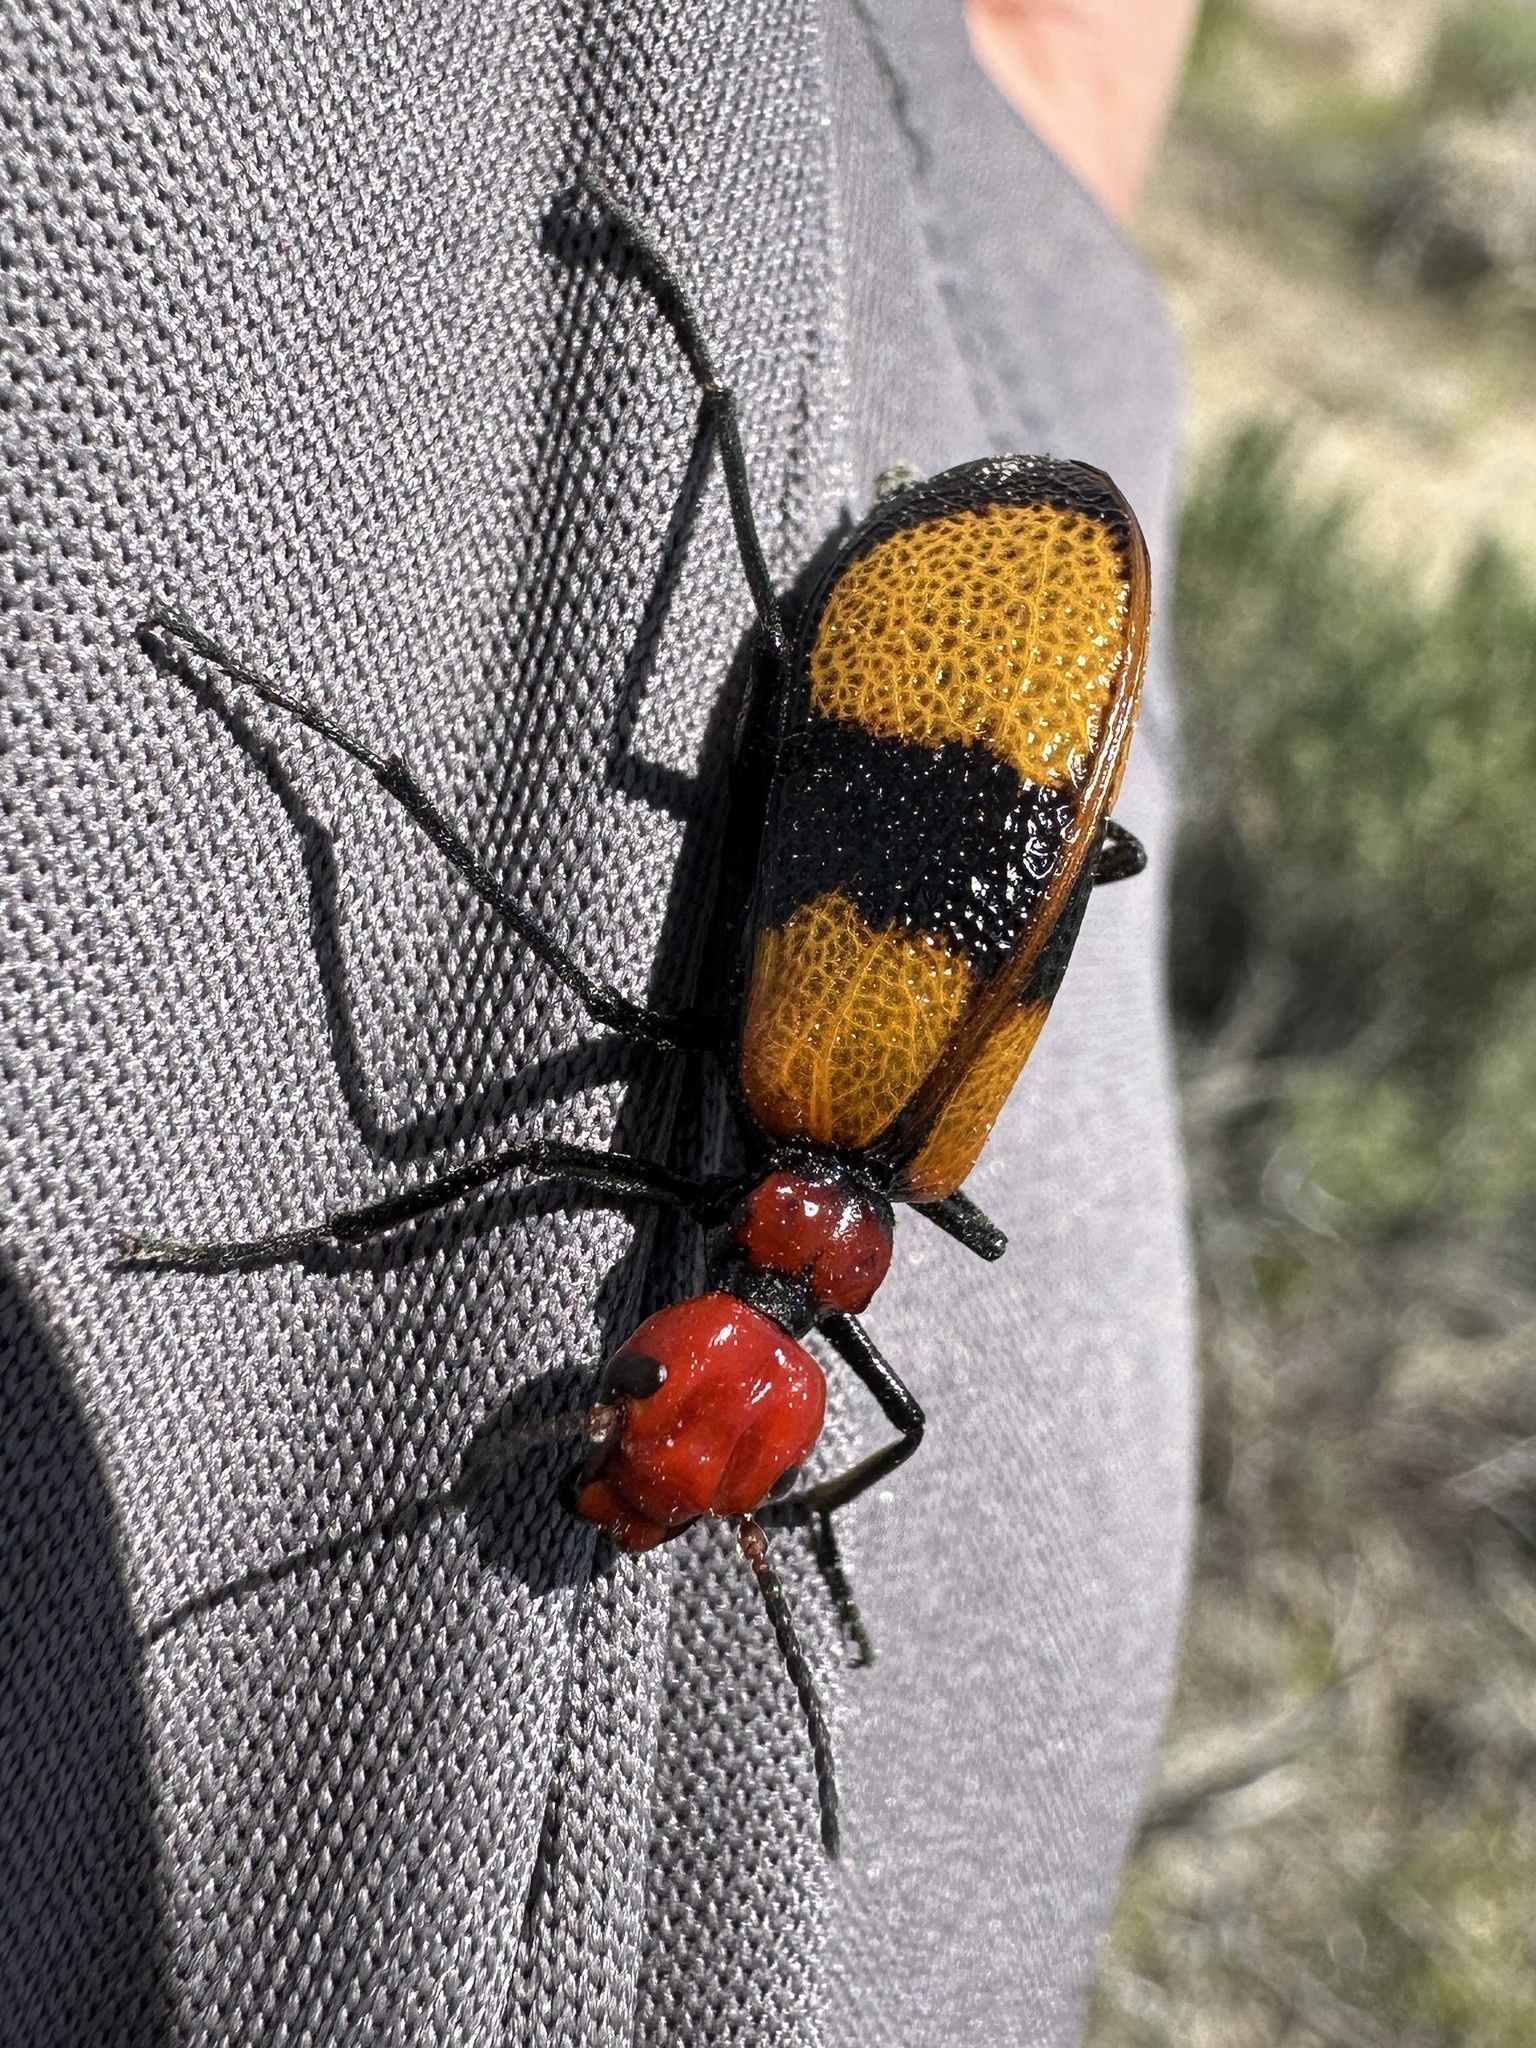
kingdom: Animalia
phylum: Arthropoda
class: Insecta
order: Coleoptera
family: Meloidae
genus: Tegrodera
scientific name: Tegrodera latecincta
